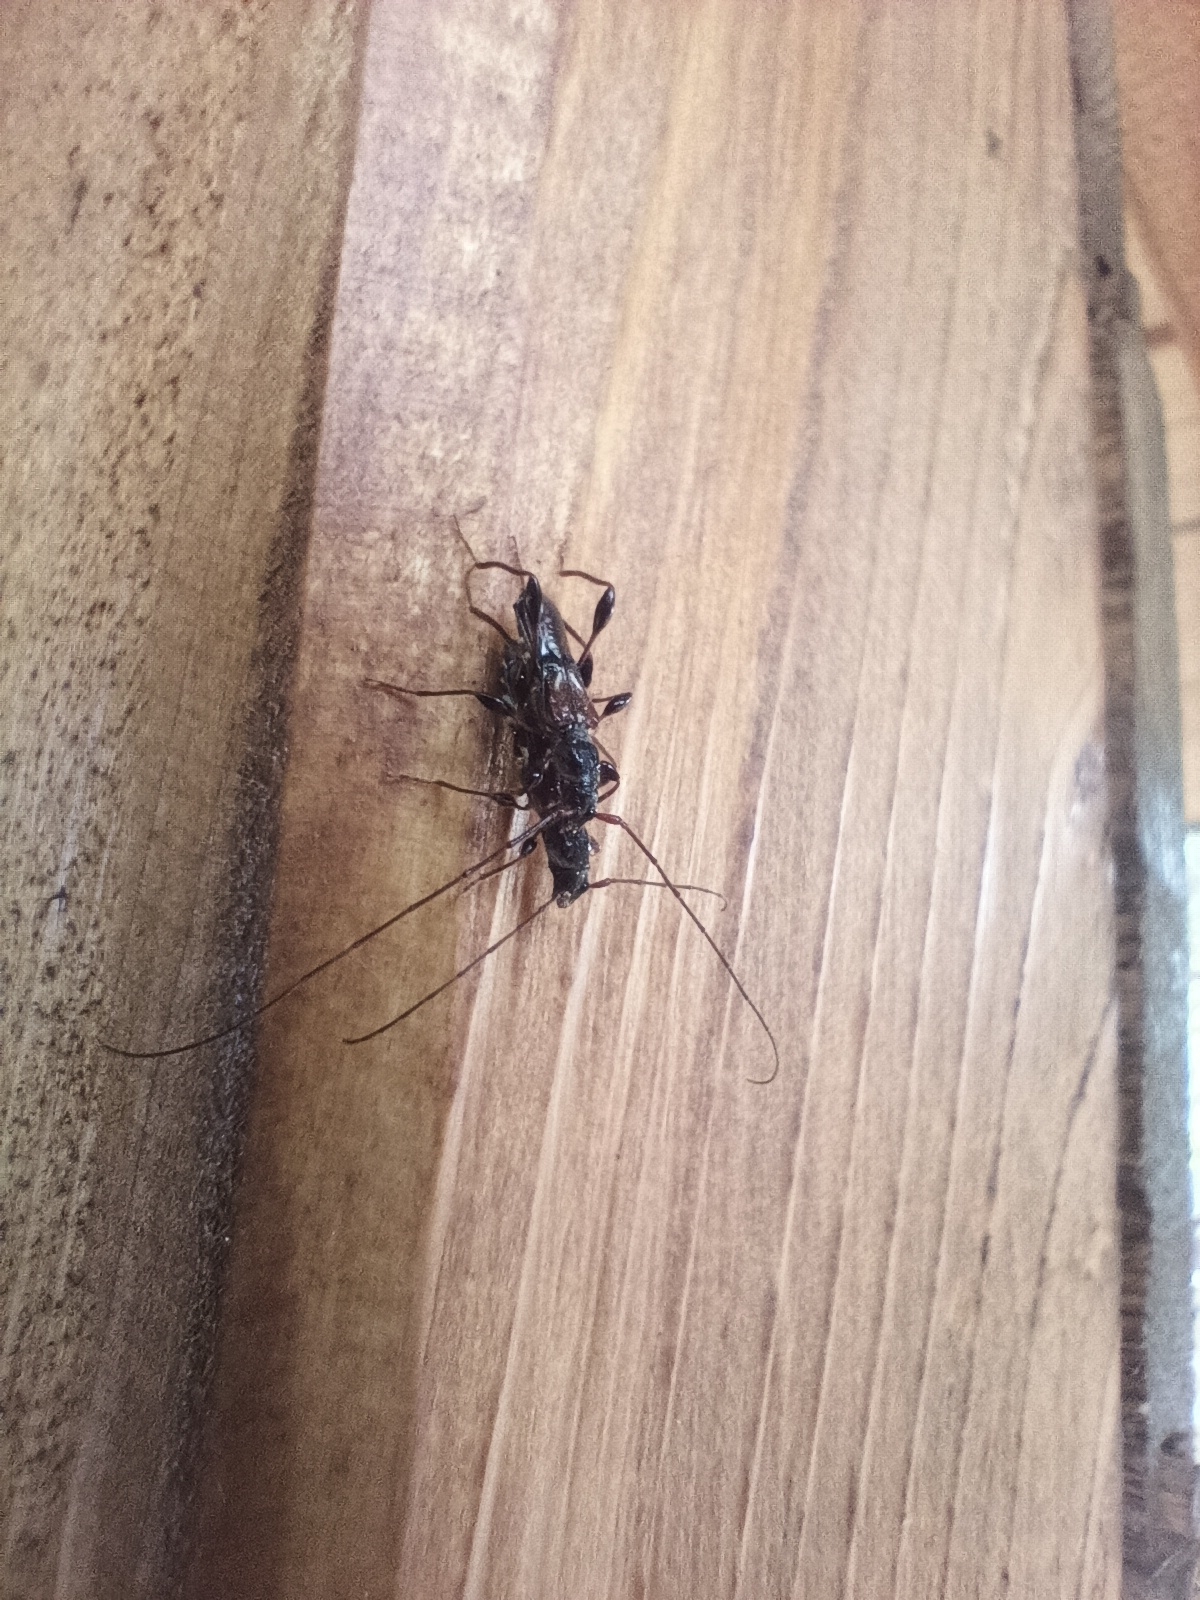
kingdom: Animalia
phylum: Arthropoda
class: Insecta
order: Coleoptera
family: Cerambycidae
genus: Molorchus
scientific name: Molorchus minor
